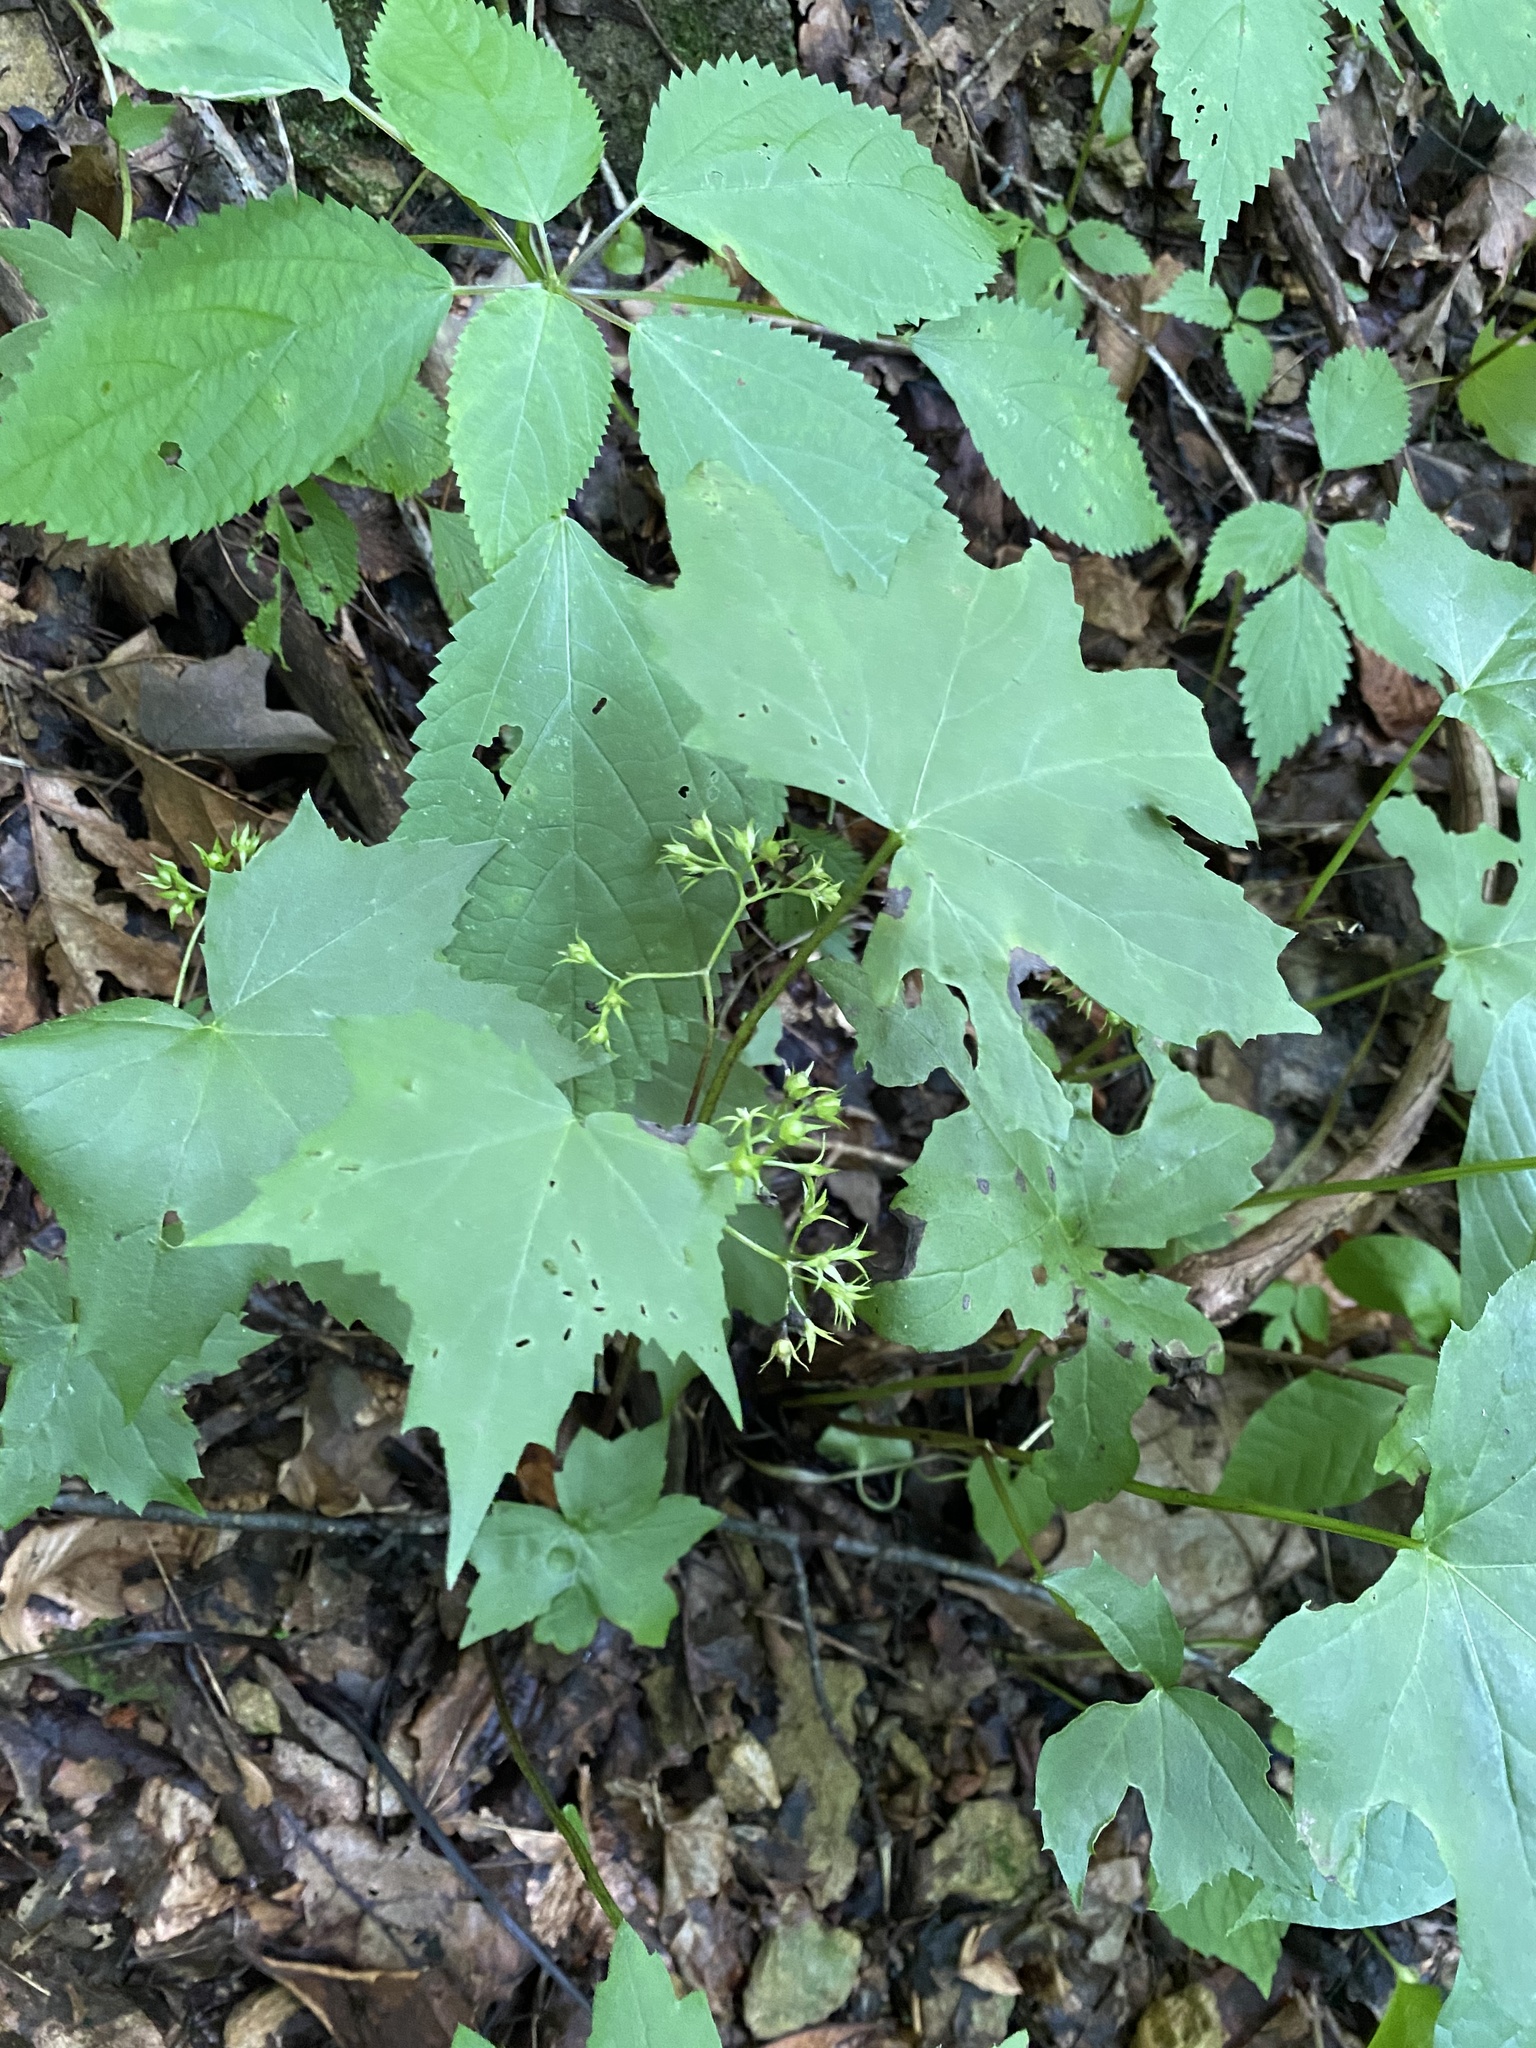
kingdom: Plantae
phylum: Tracheophyta
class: Magnoliopsida
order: Boraginales
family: Hydrophyllaceae
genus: Hydrophyllum
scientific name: Hydrophyllum canadense
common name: Canada waterleaf
